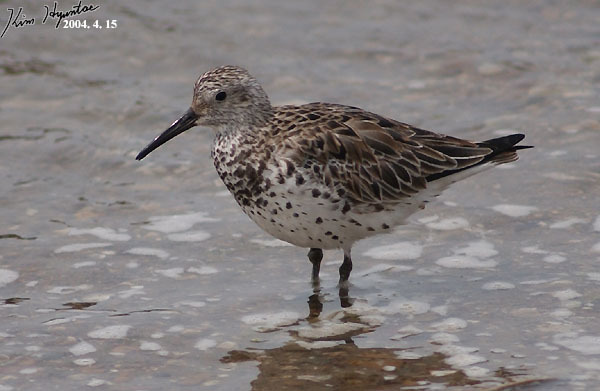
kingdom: Animalia
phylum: Chordata
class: Aves
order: Charadriiformes
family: Scolopacidae
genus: Calidris
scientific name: Calidris tenuirostris
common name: Great knot
